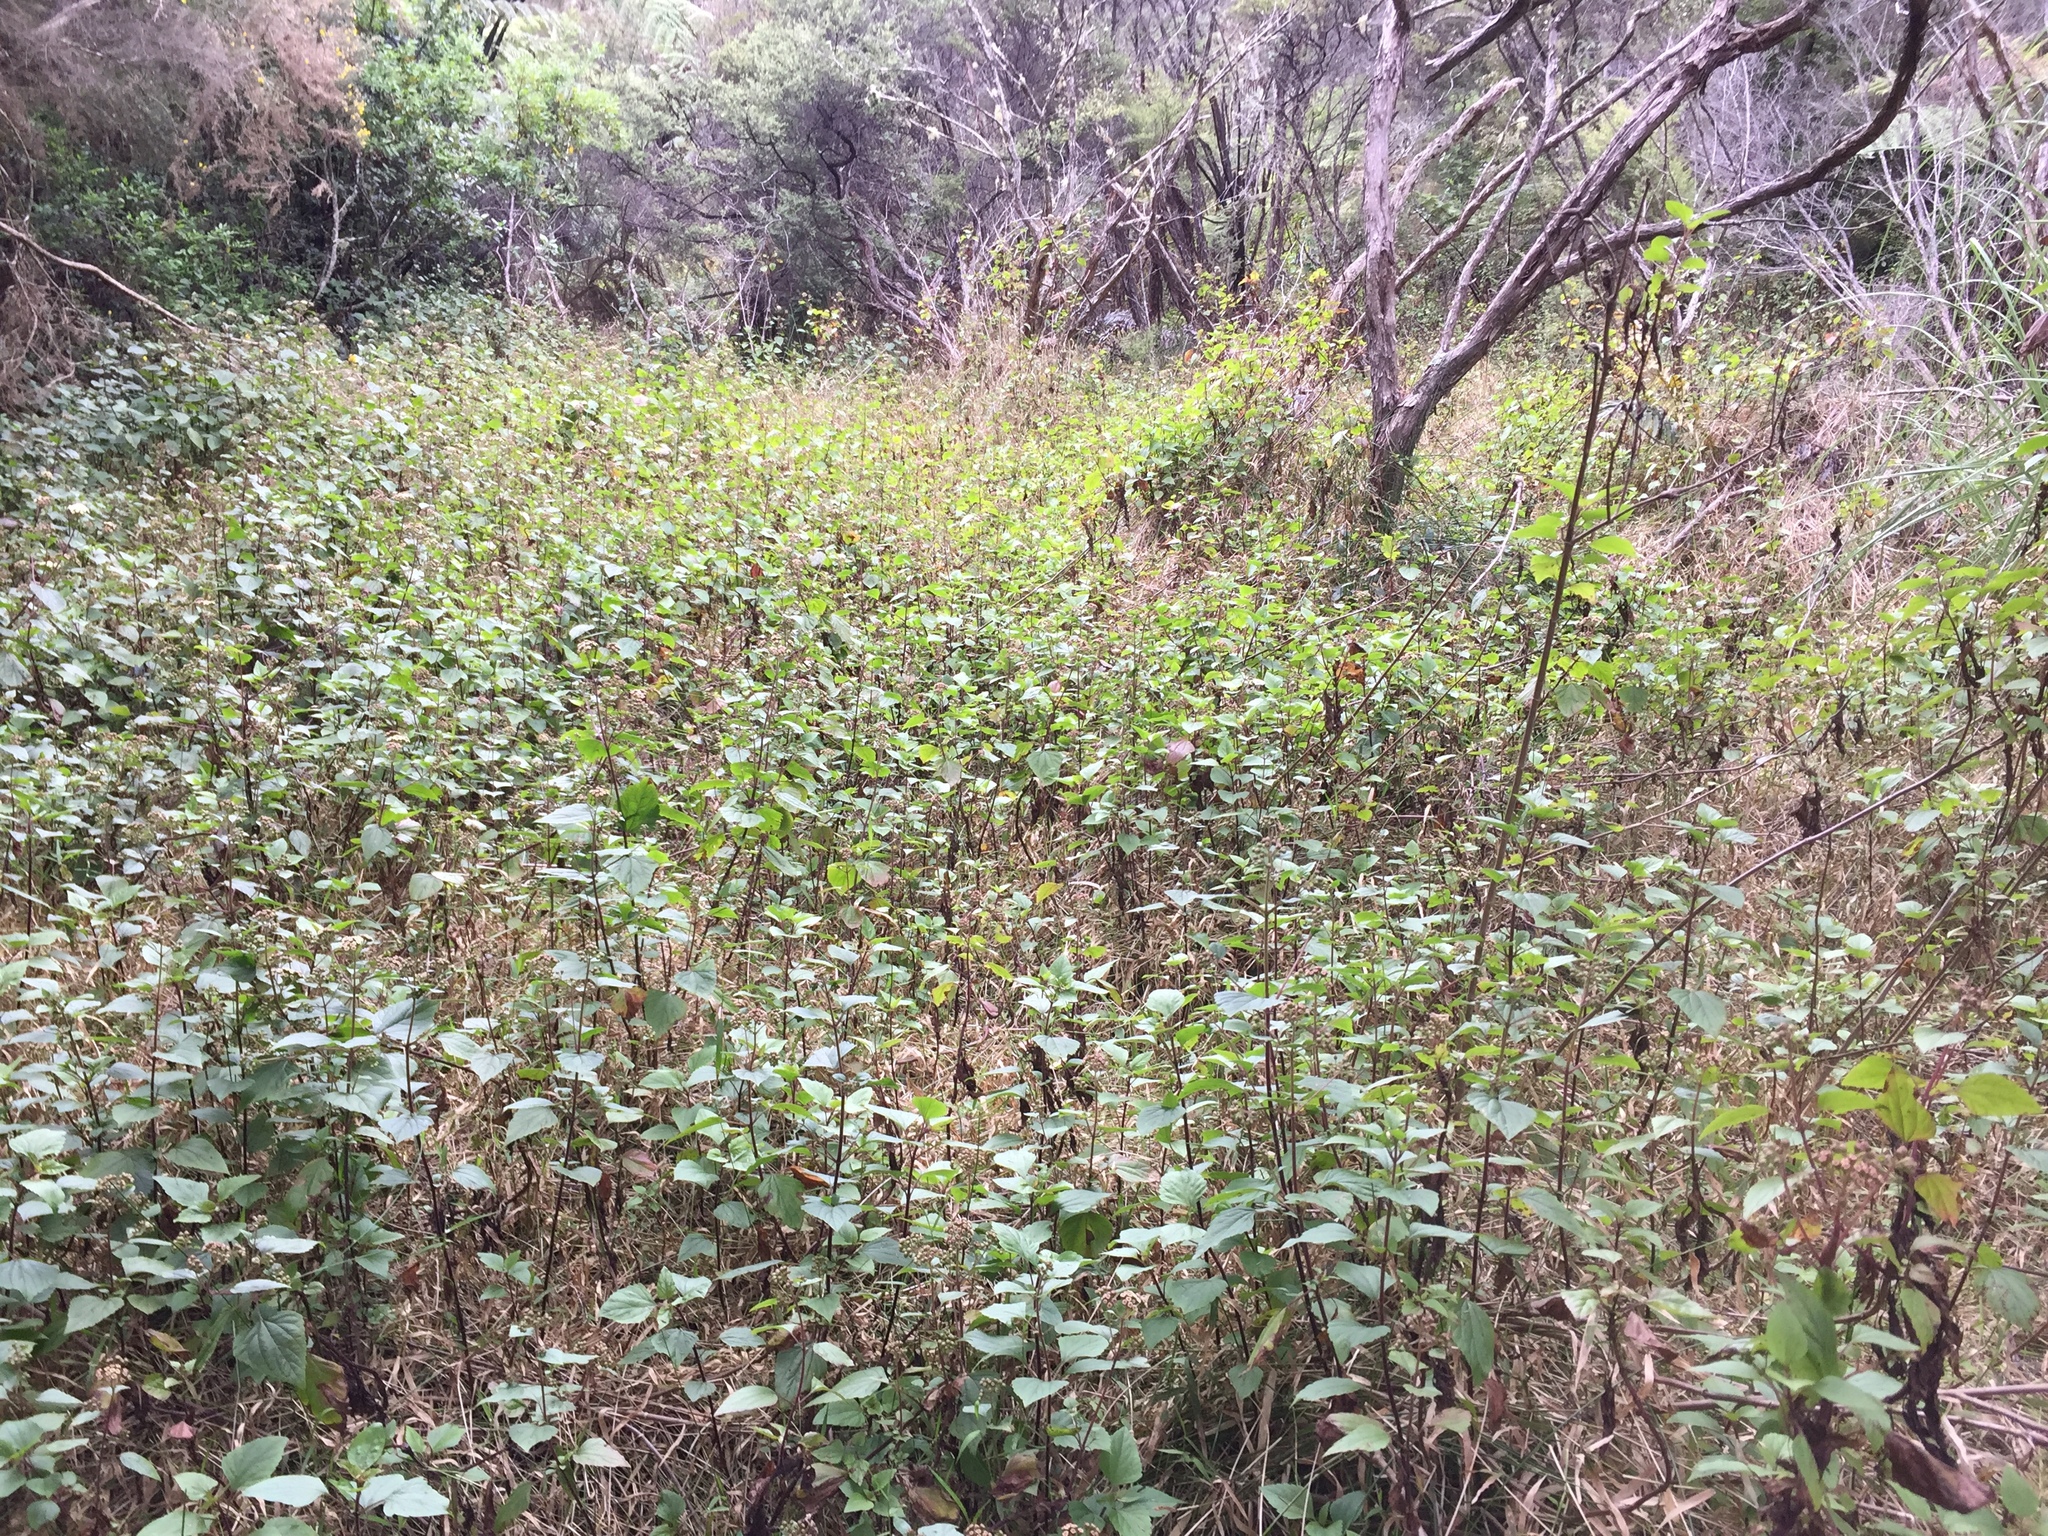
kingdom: Plantae
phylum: Tracheophyta
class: Magnoliopsida
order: Asterales
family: Asteraceae
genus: Ageratina
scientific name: Ageratina adenophora
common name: Sticky snakeroot
